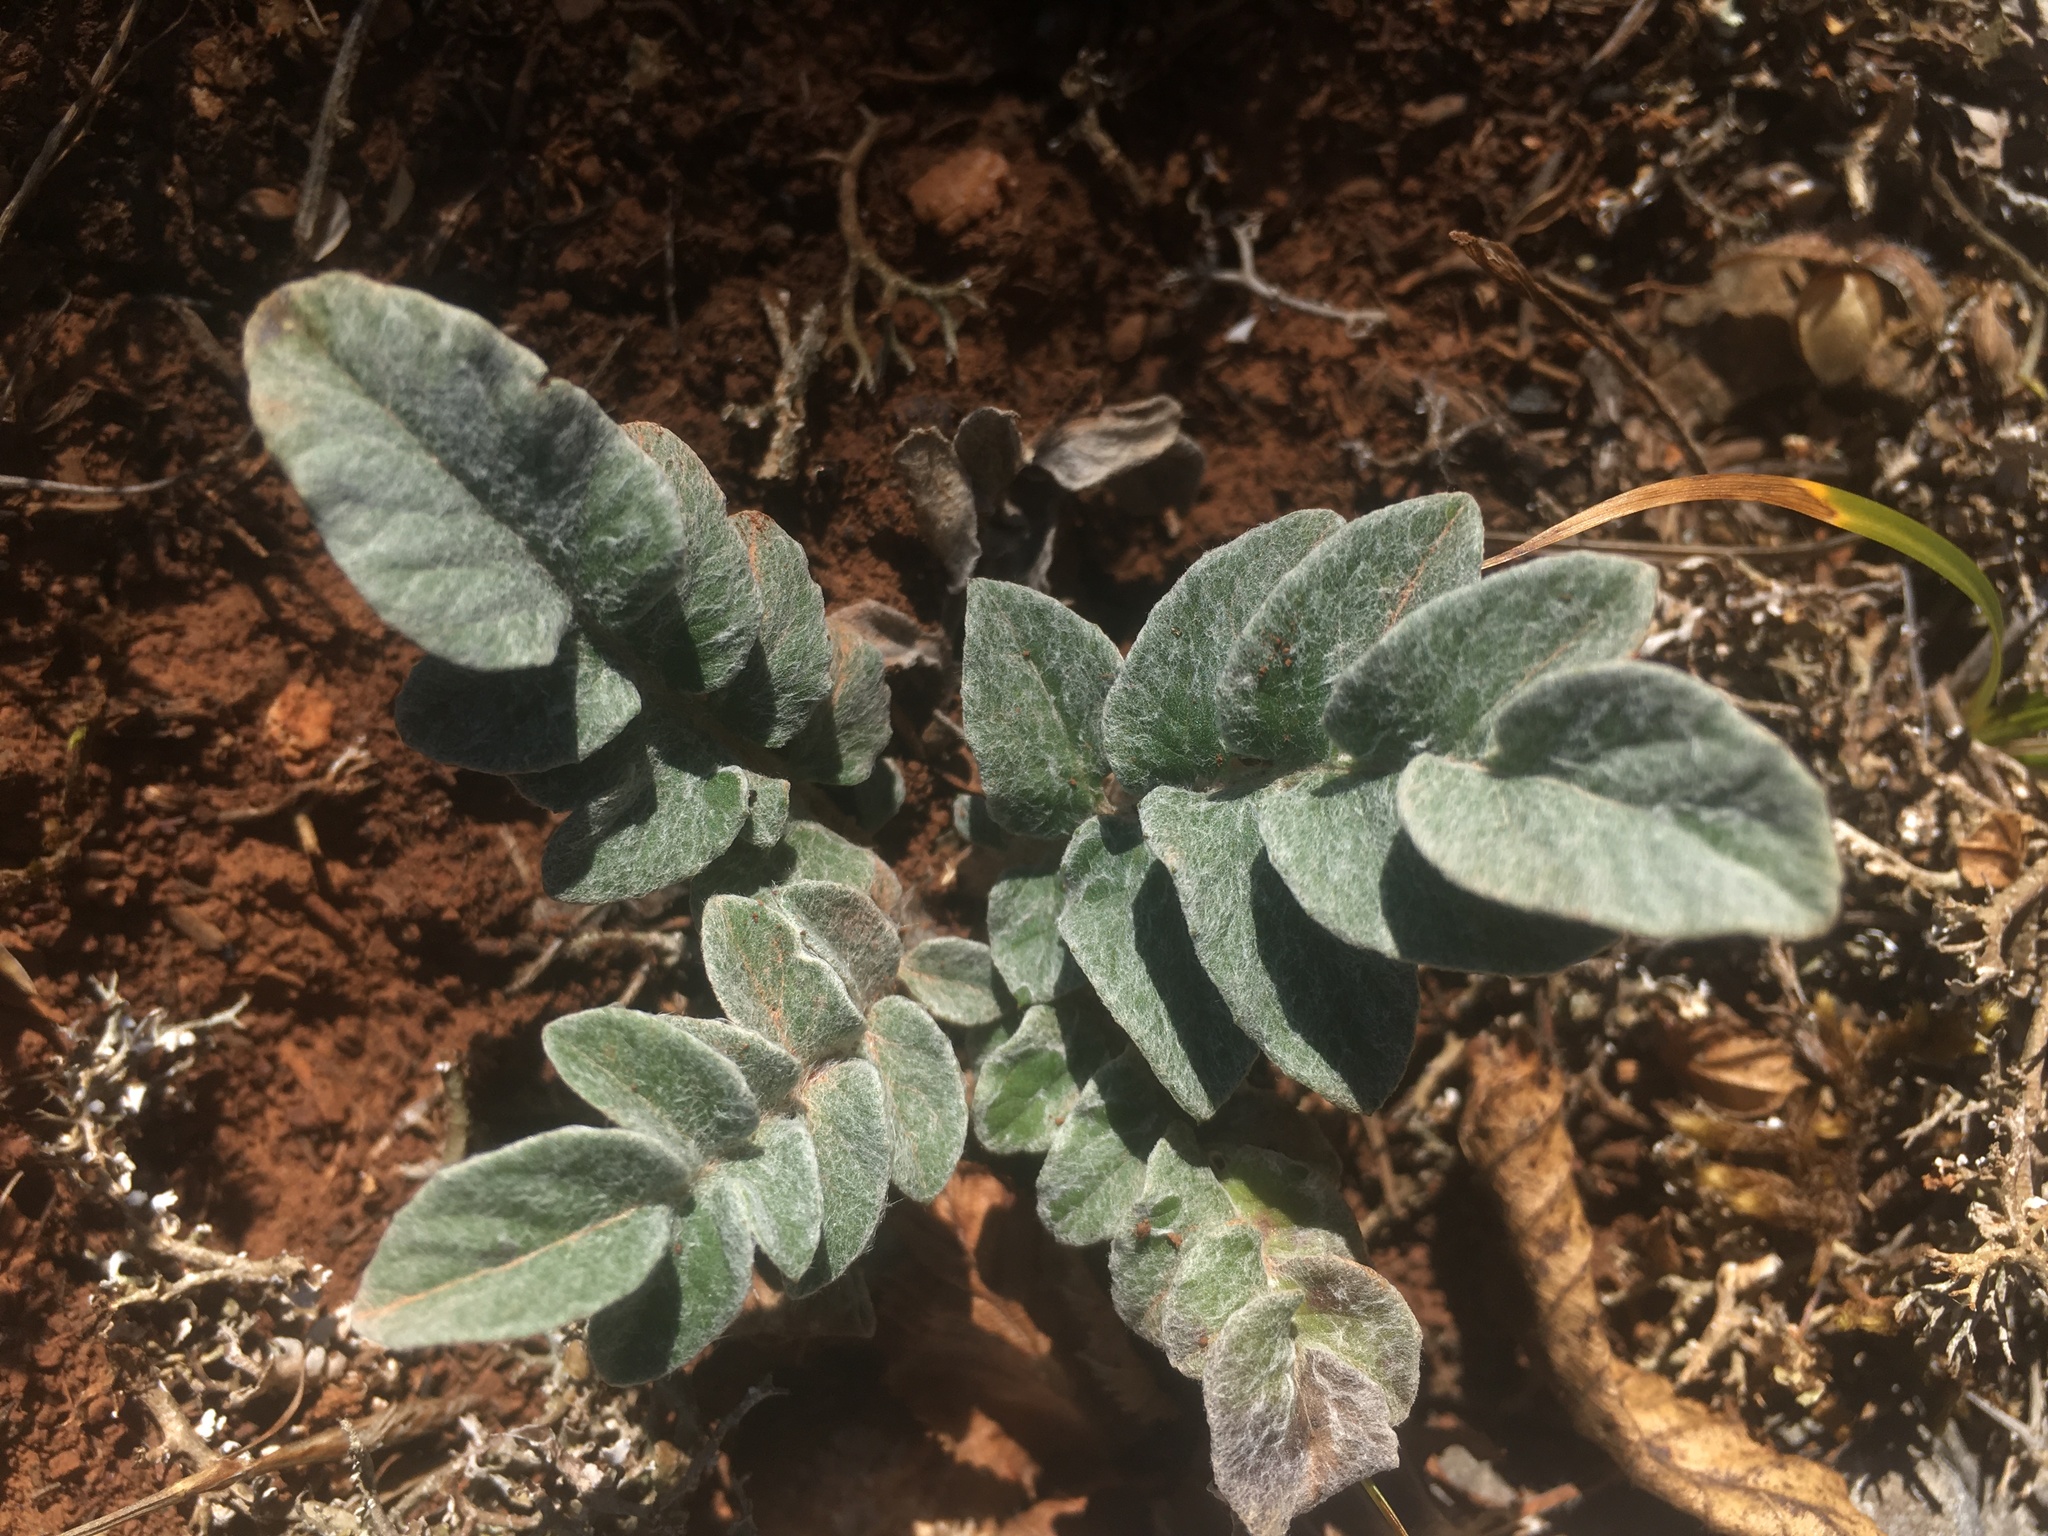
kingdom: Plantae
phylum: Tracheophyta
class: Magnoliopsida
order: Asterales
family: Asteraceae
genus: Psephellus
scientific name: Psephellus declinatus
